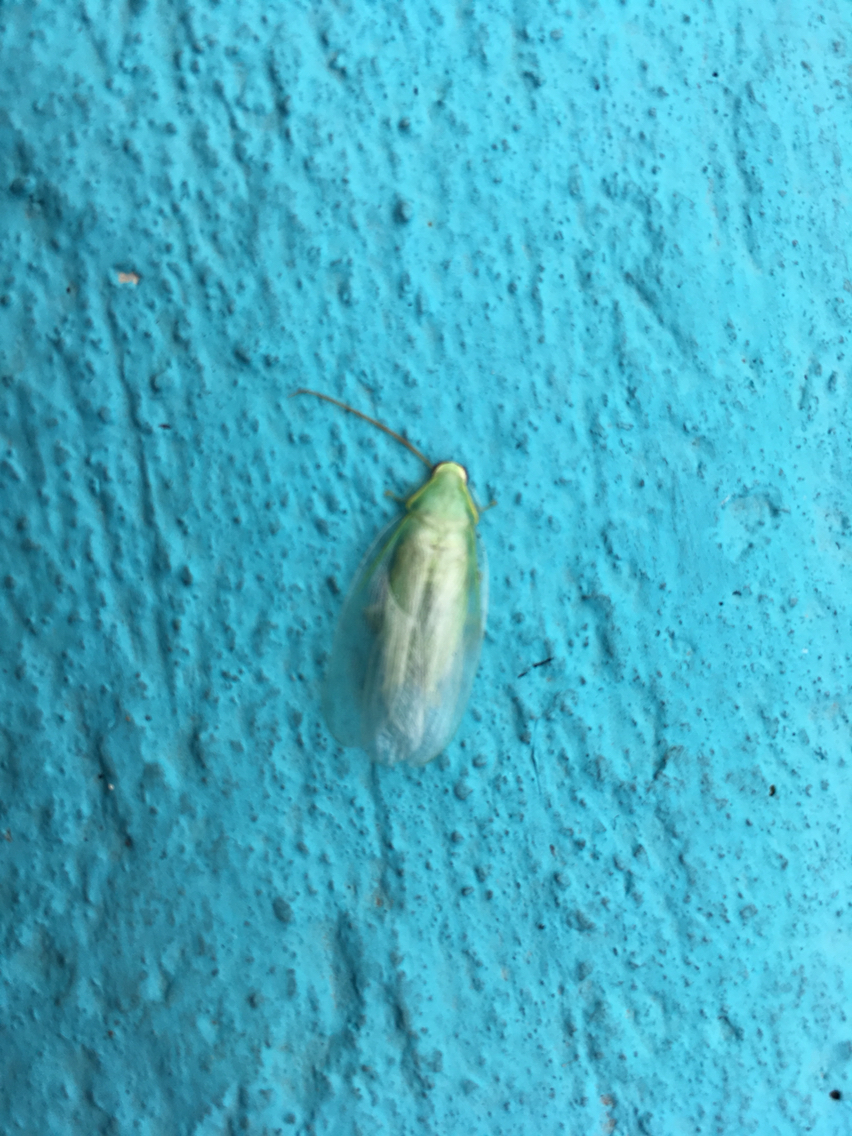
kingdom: Animalia
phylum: Arthropoda
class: Insecta
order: Blattodea
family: Blaberidae
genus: Panchlora
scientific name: Panchlora nivea
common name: Cuban cockroach
